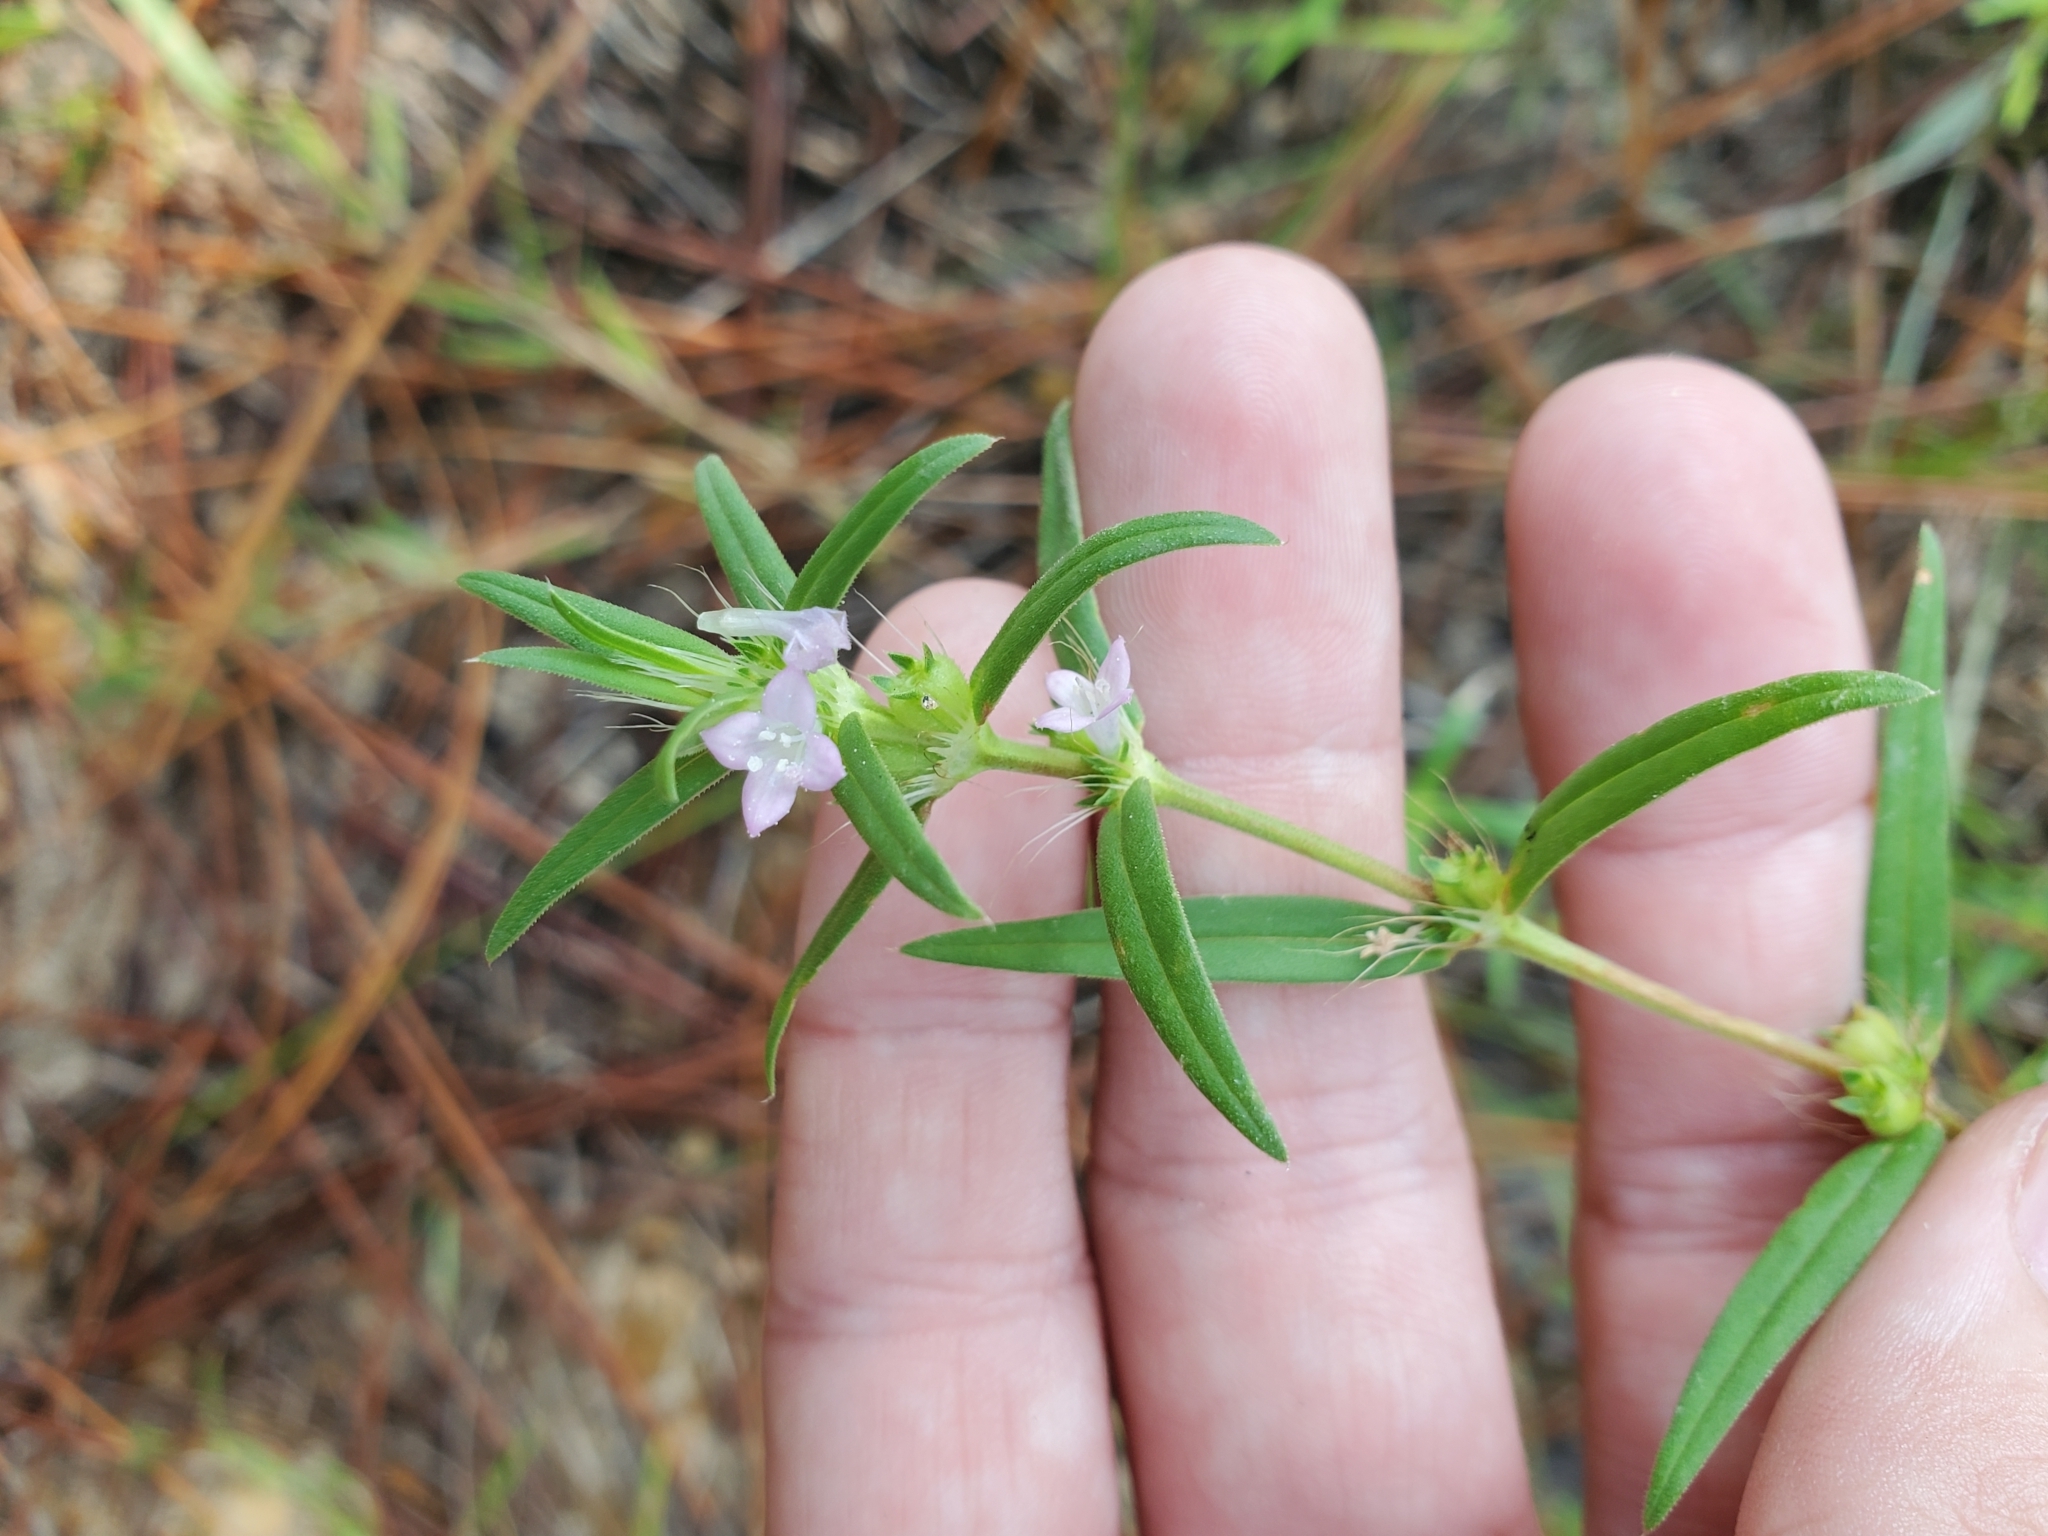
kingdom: Plantae
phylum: Tracheophyta
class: Magnoliopsida
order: Gentianales
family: Rubiaceae
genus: Hexasepalum
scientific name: Hexasepalum teres
